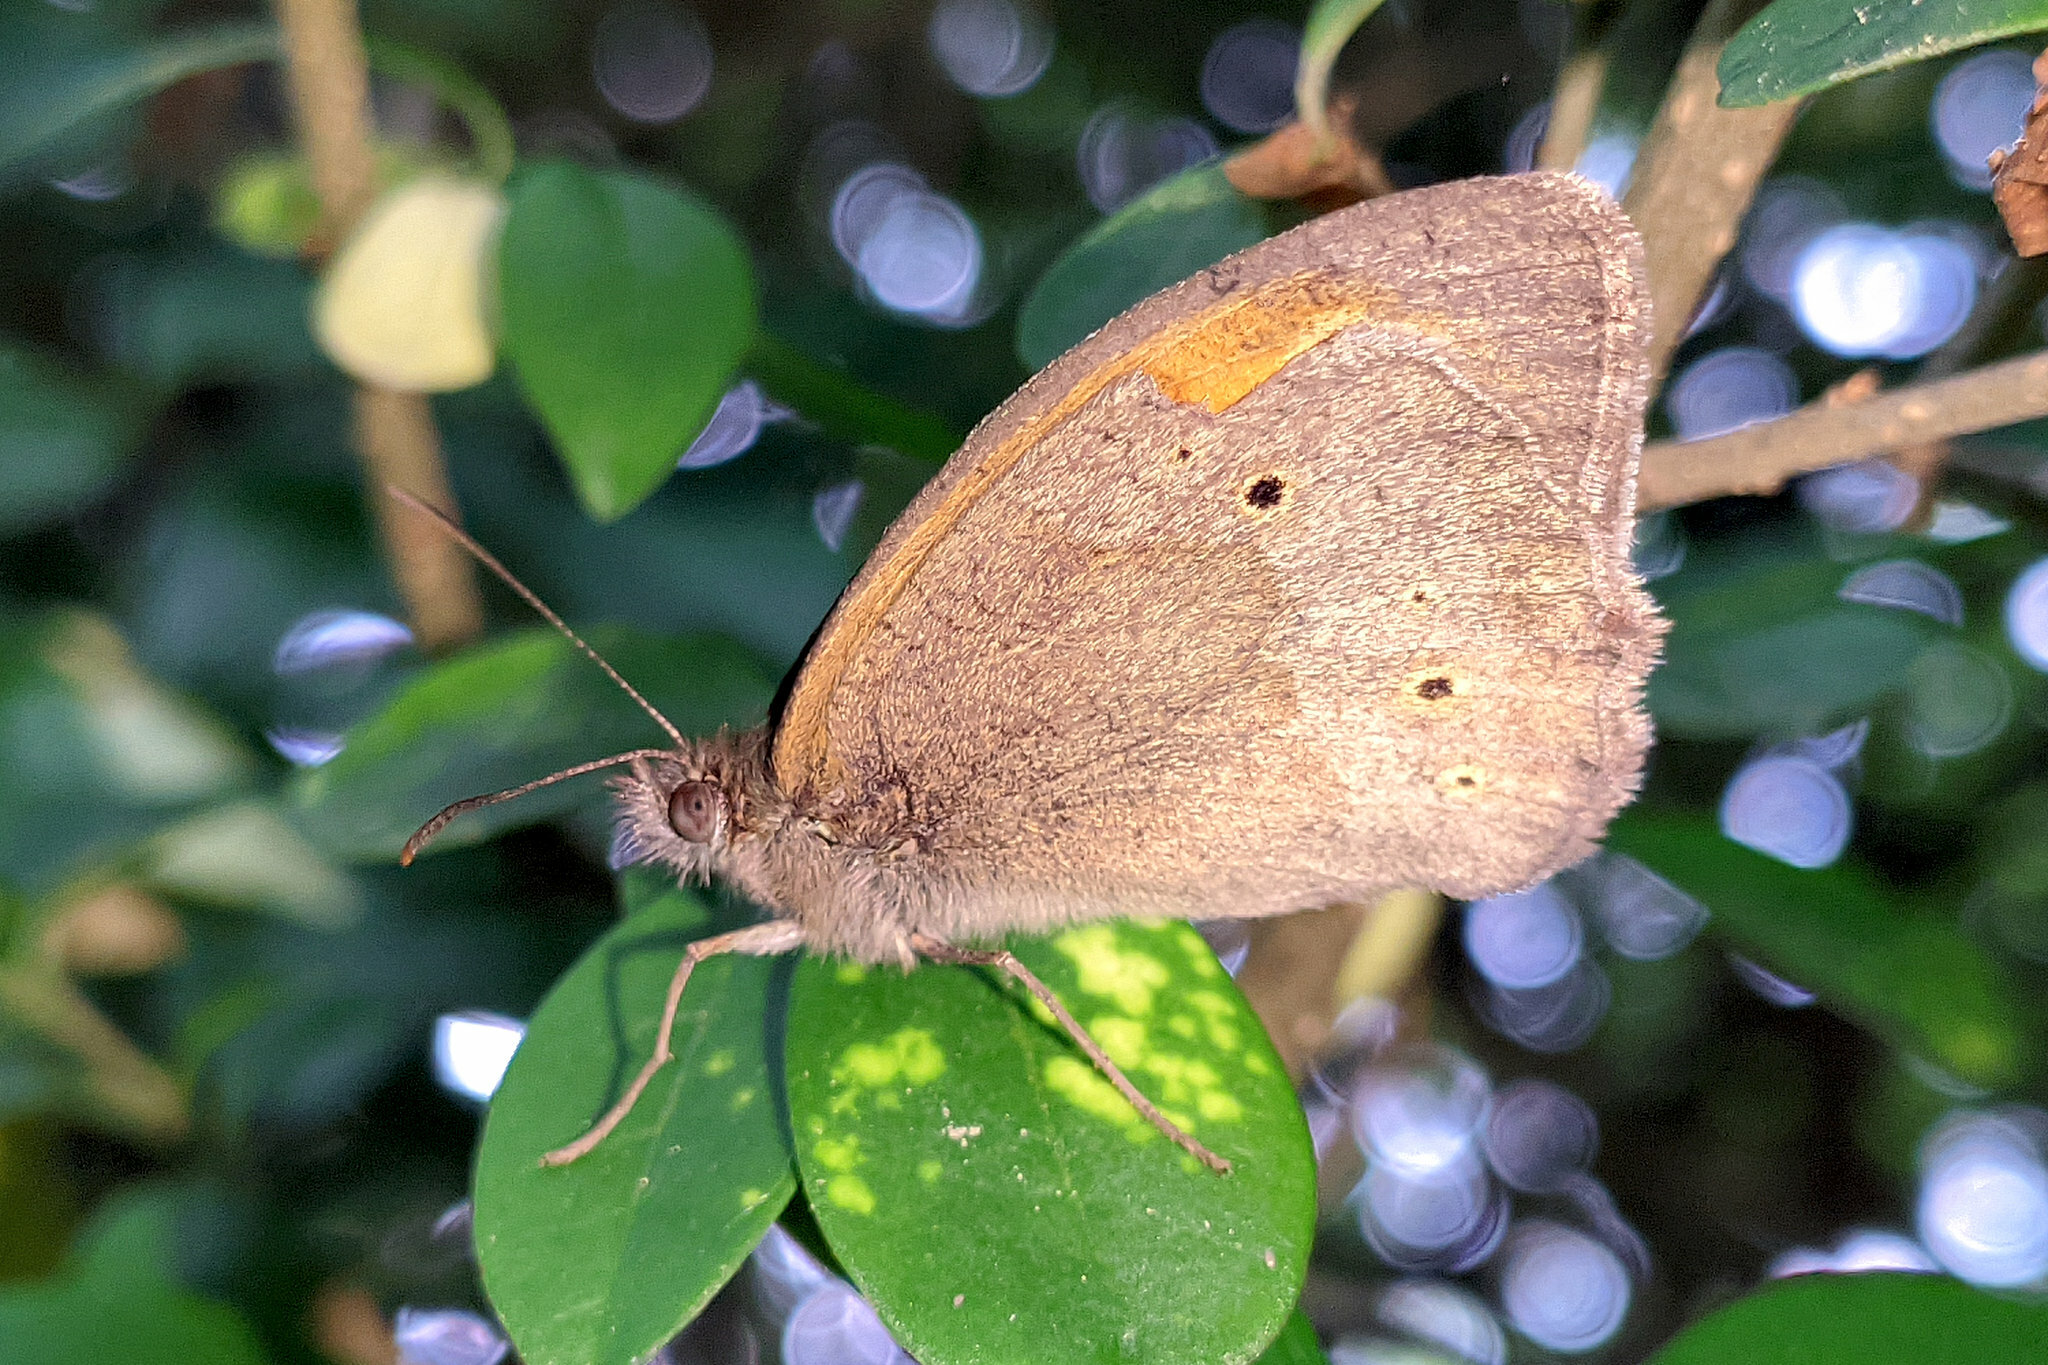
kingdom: Animalia
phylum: Arthropoda
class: Insecta
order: Lepidoptera
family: Nymphalidae
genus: Maniola
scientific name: Maniola jurtina
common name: Meadow brown
